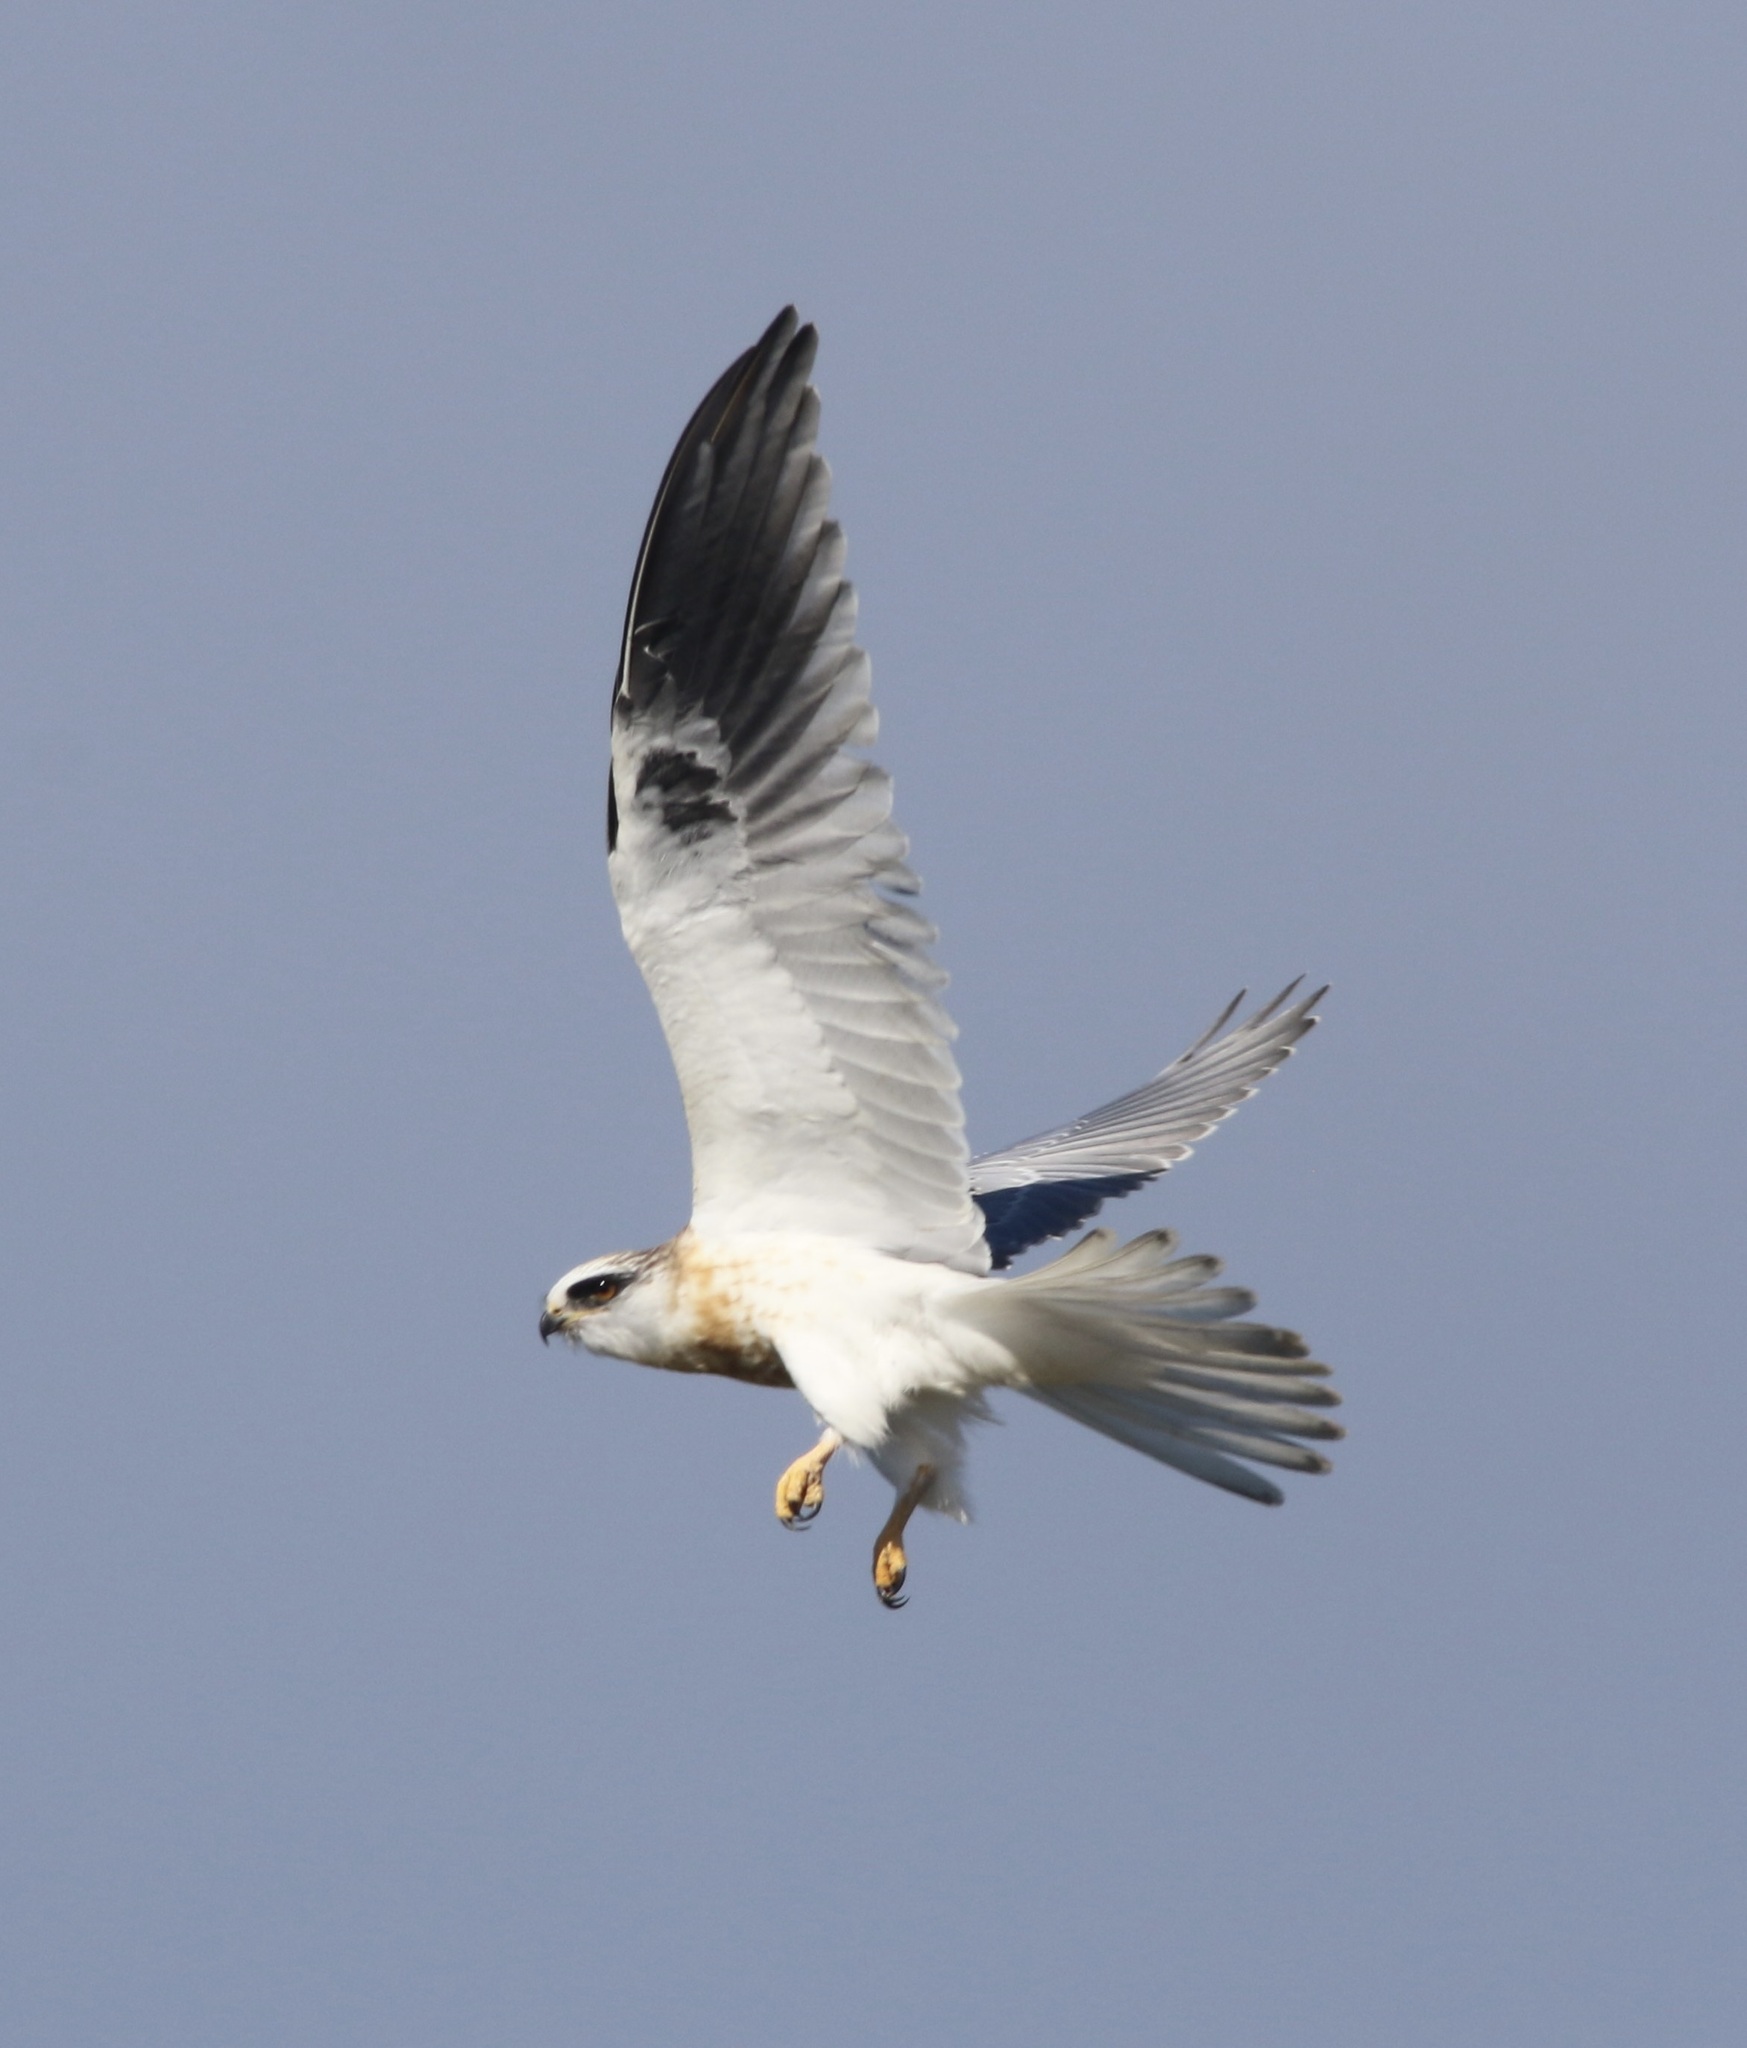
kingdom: Animalia
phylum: Chordata
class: Aves
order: Accipitriformes
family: Accipitridae
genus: Elanus
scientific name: Elanus leucurus
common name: White-tailed kite
